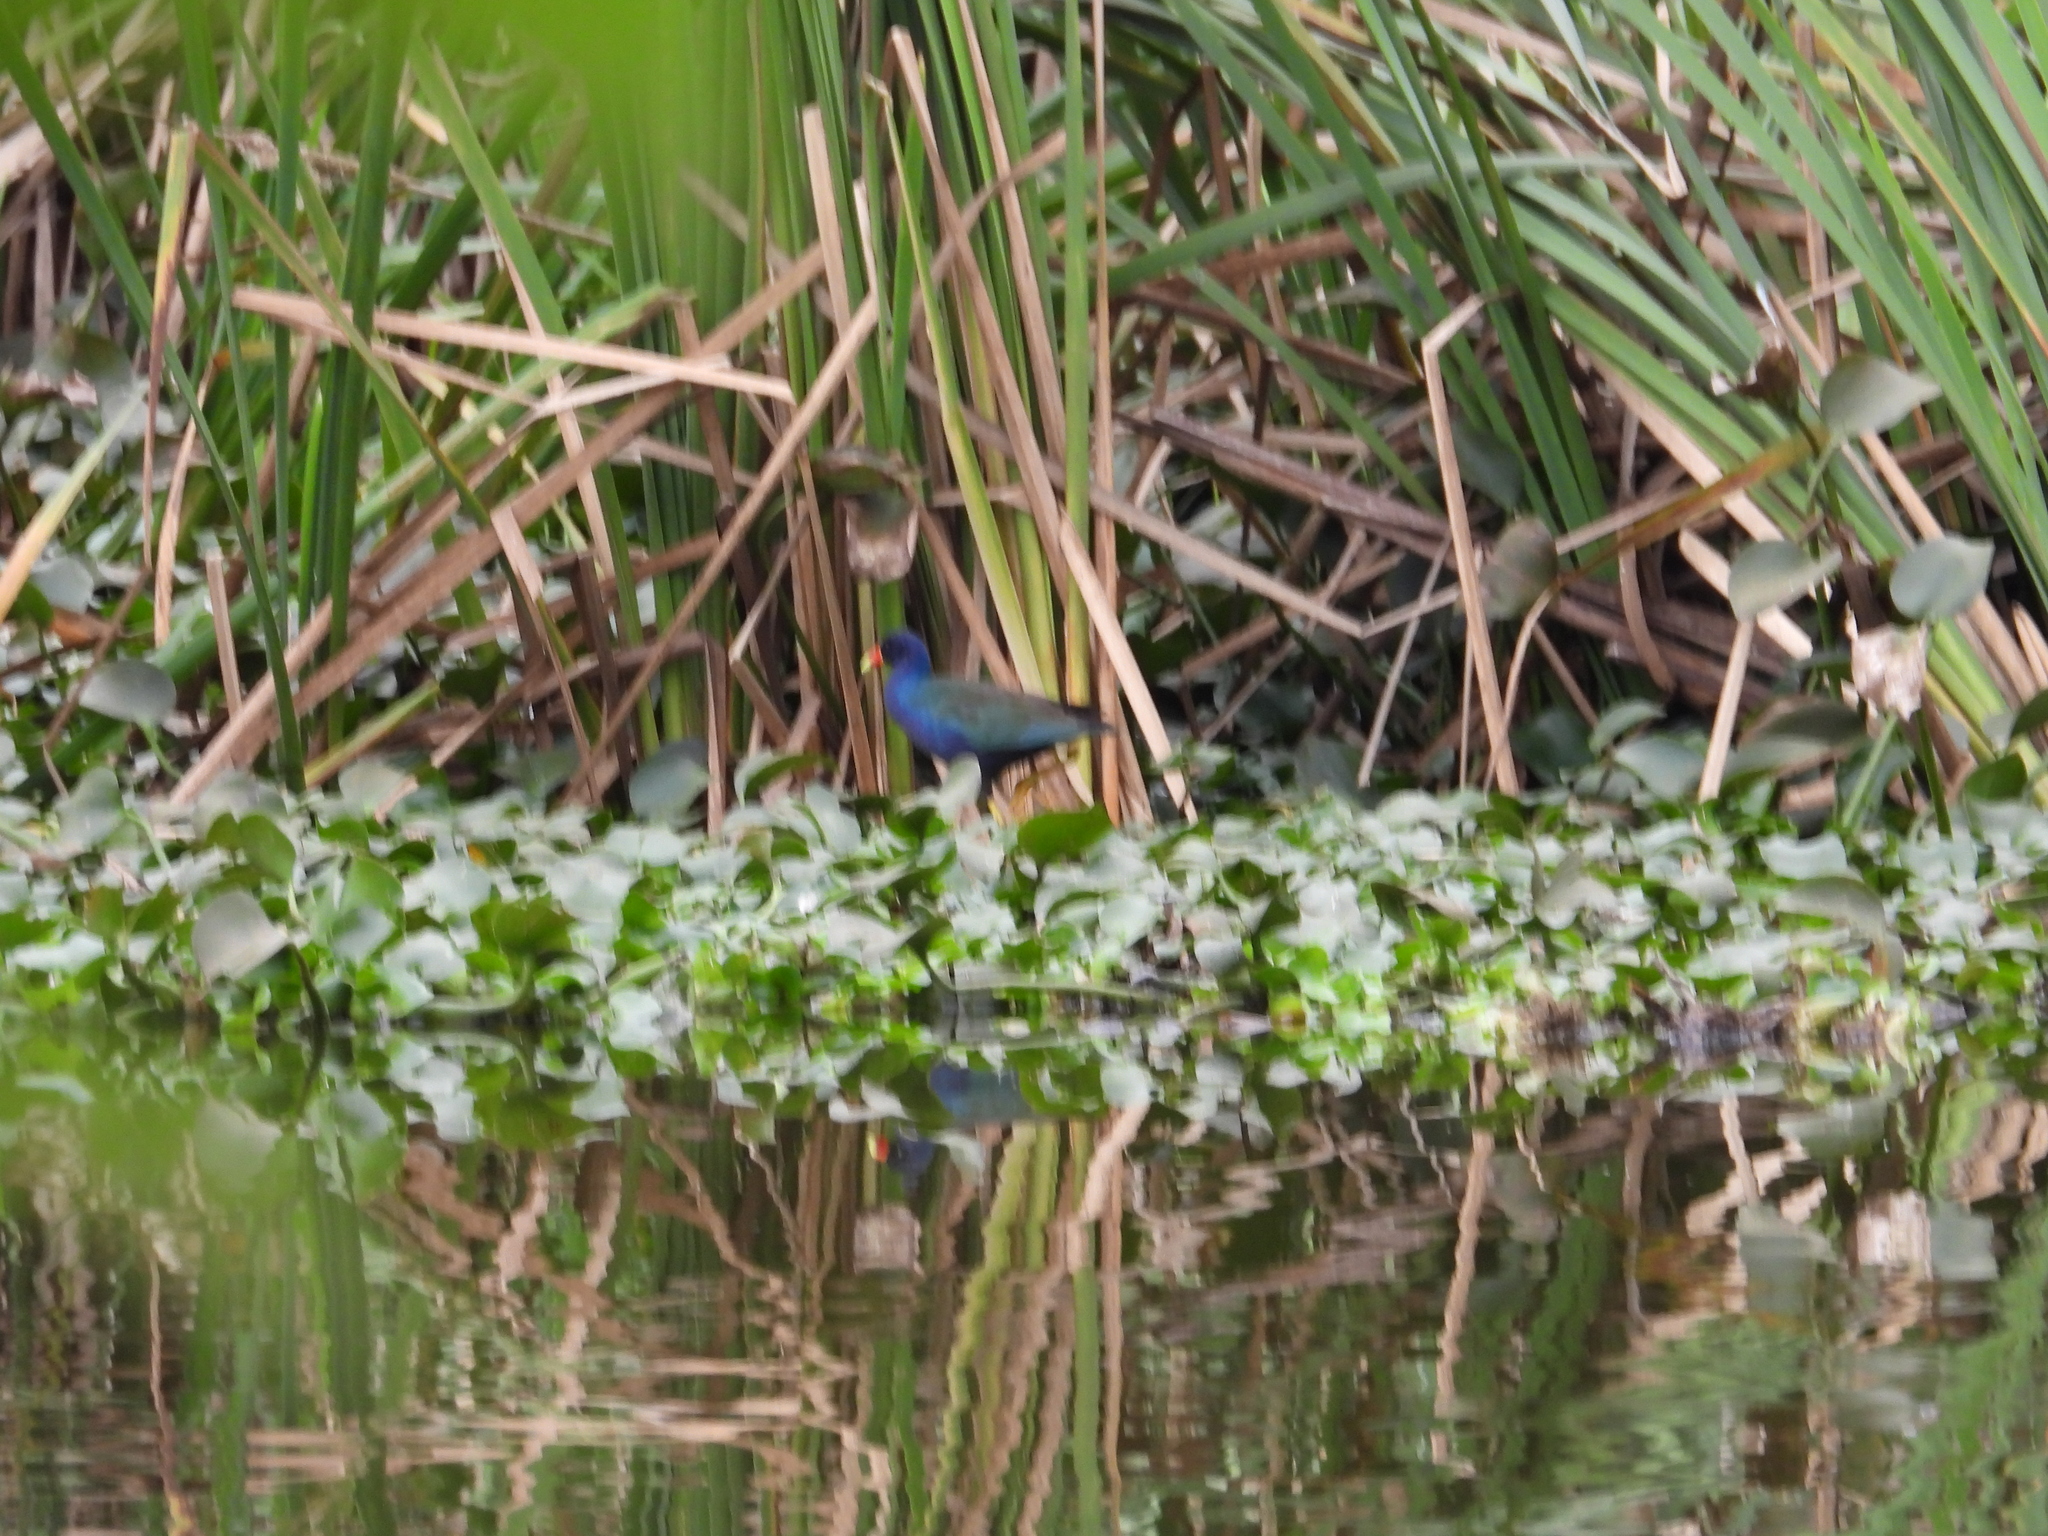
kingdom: Animalia
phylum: Chordata
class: Aves
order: Gruiformes
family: Rallidae
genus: Porphyrio
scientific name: Porphyrio martinica
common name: Purple gallinule
